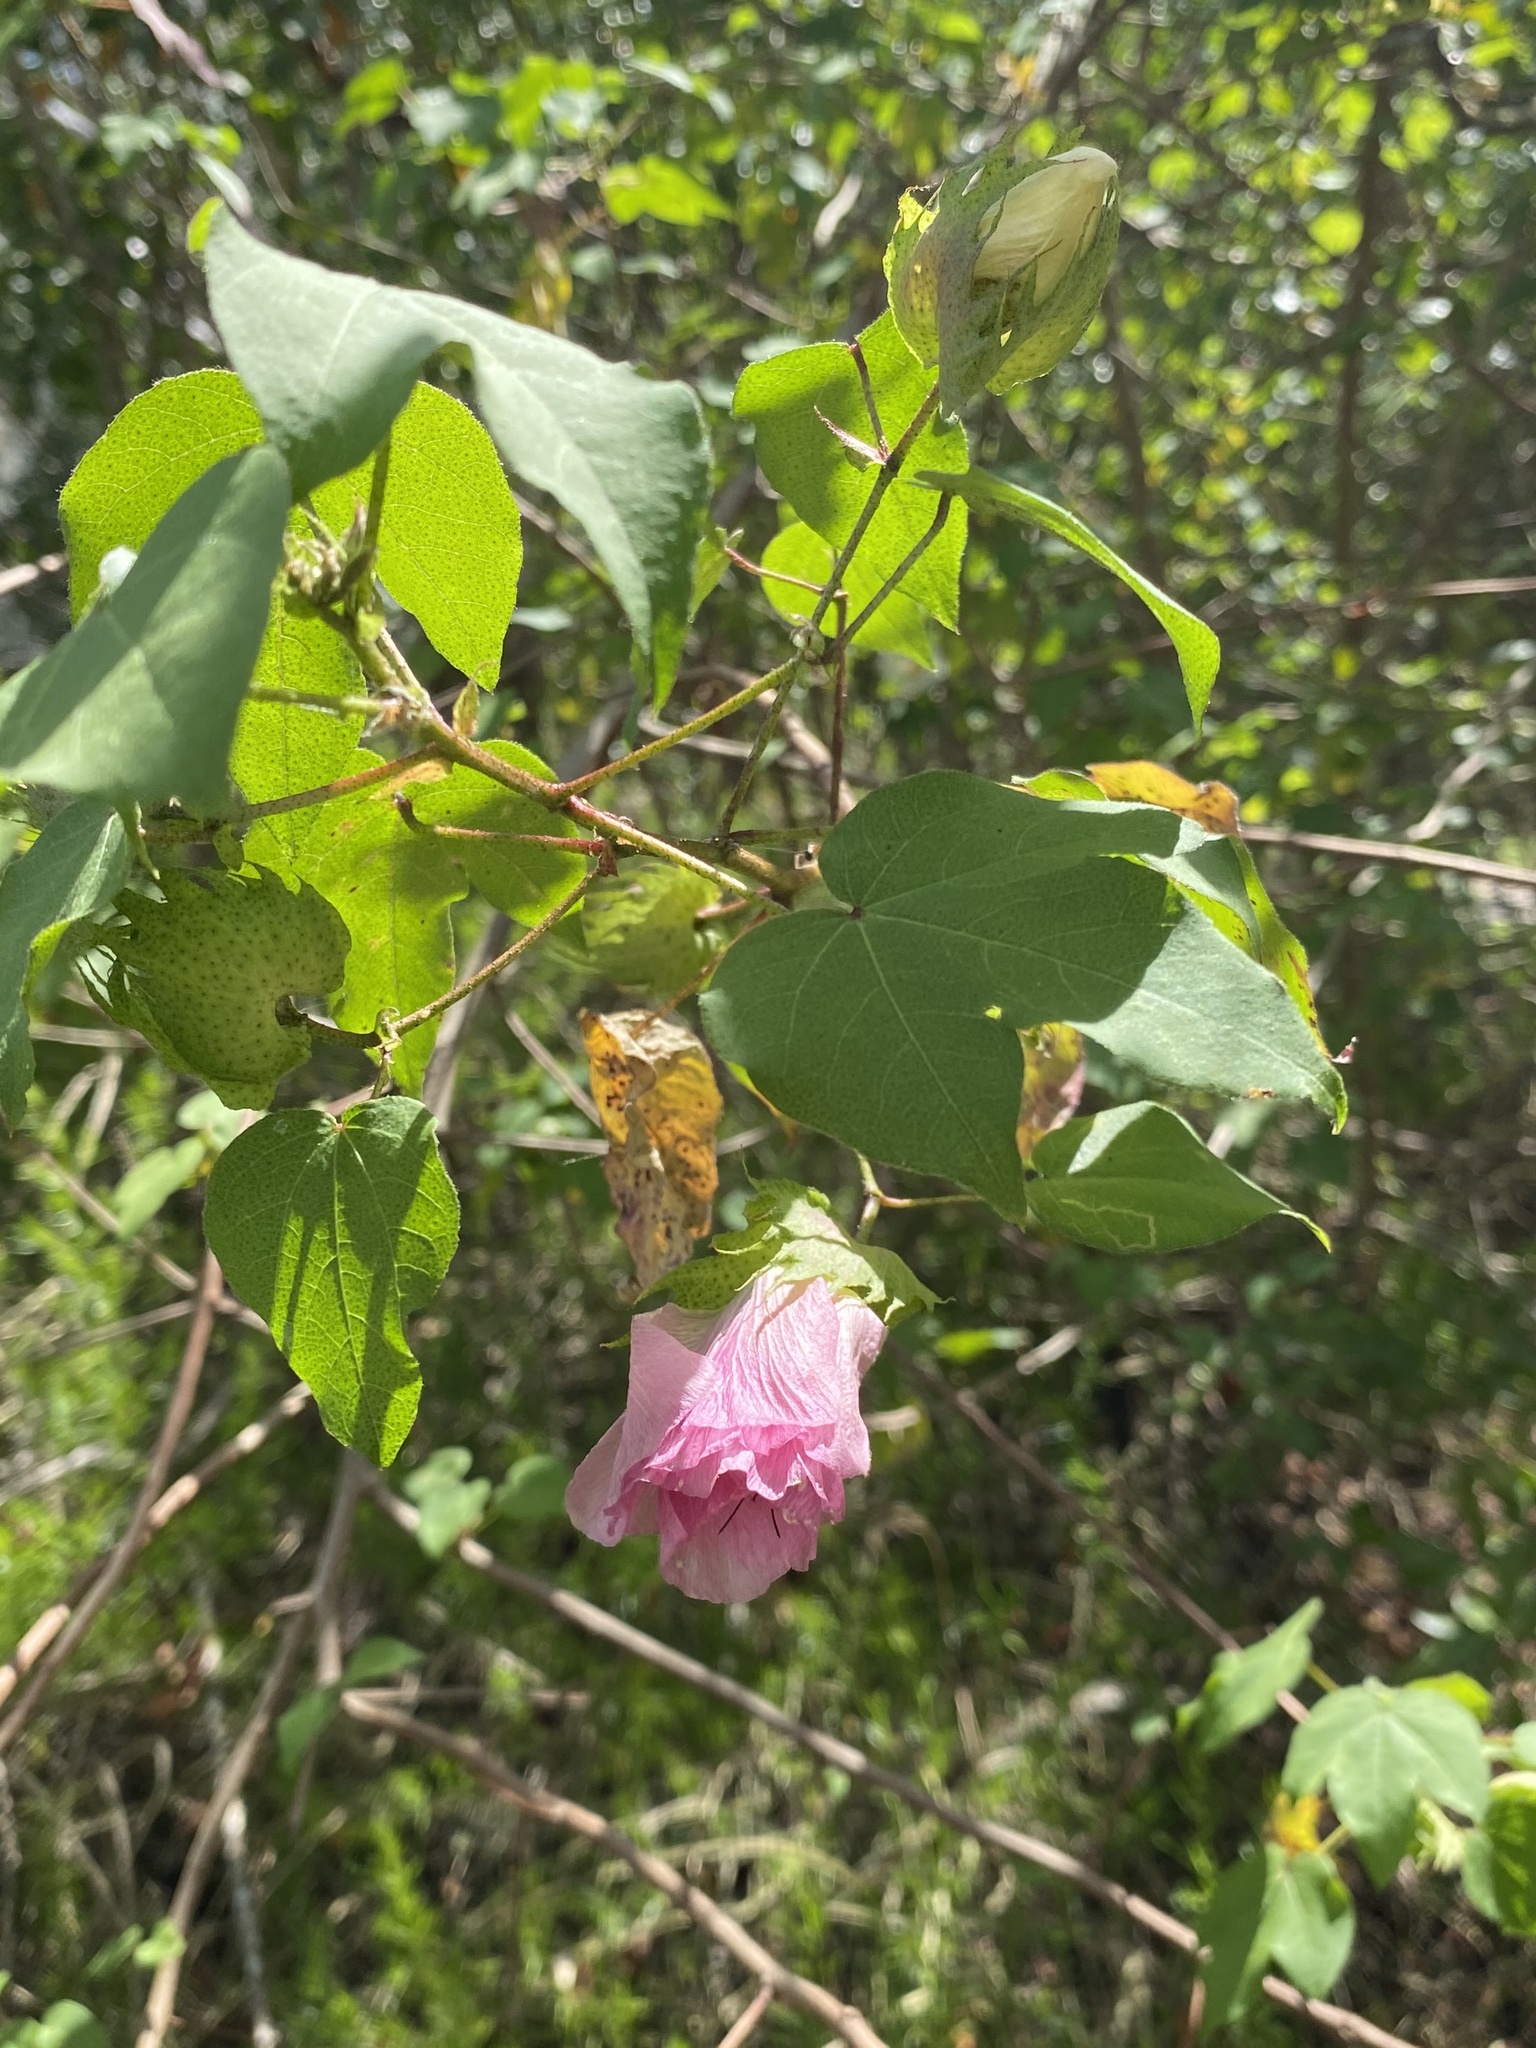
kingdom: Plantae
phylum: Tracheophyta
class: Magnoliopsida
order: Malvales
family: Malvaceae
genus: Gossypium
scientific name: Gossypium hirsutum
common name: Cotton
